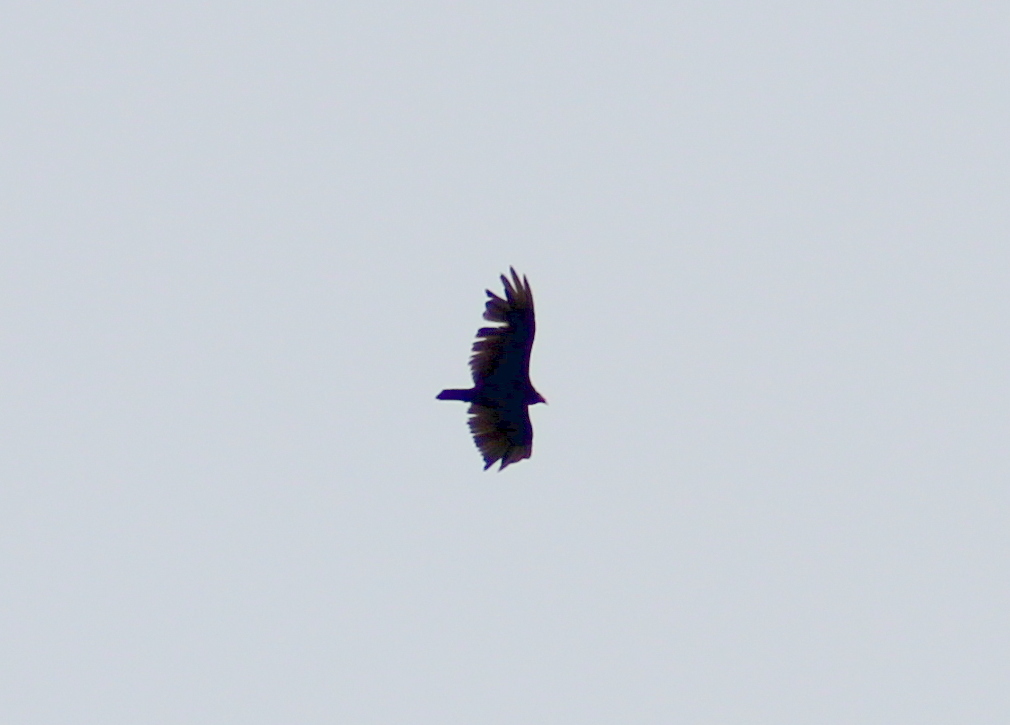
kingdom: Animalia
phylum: Chordata
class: Aves
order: Accipitriformes
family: Cathartidae
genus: Cathartes
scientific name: Cathartes aura
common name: Turkey vulture
